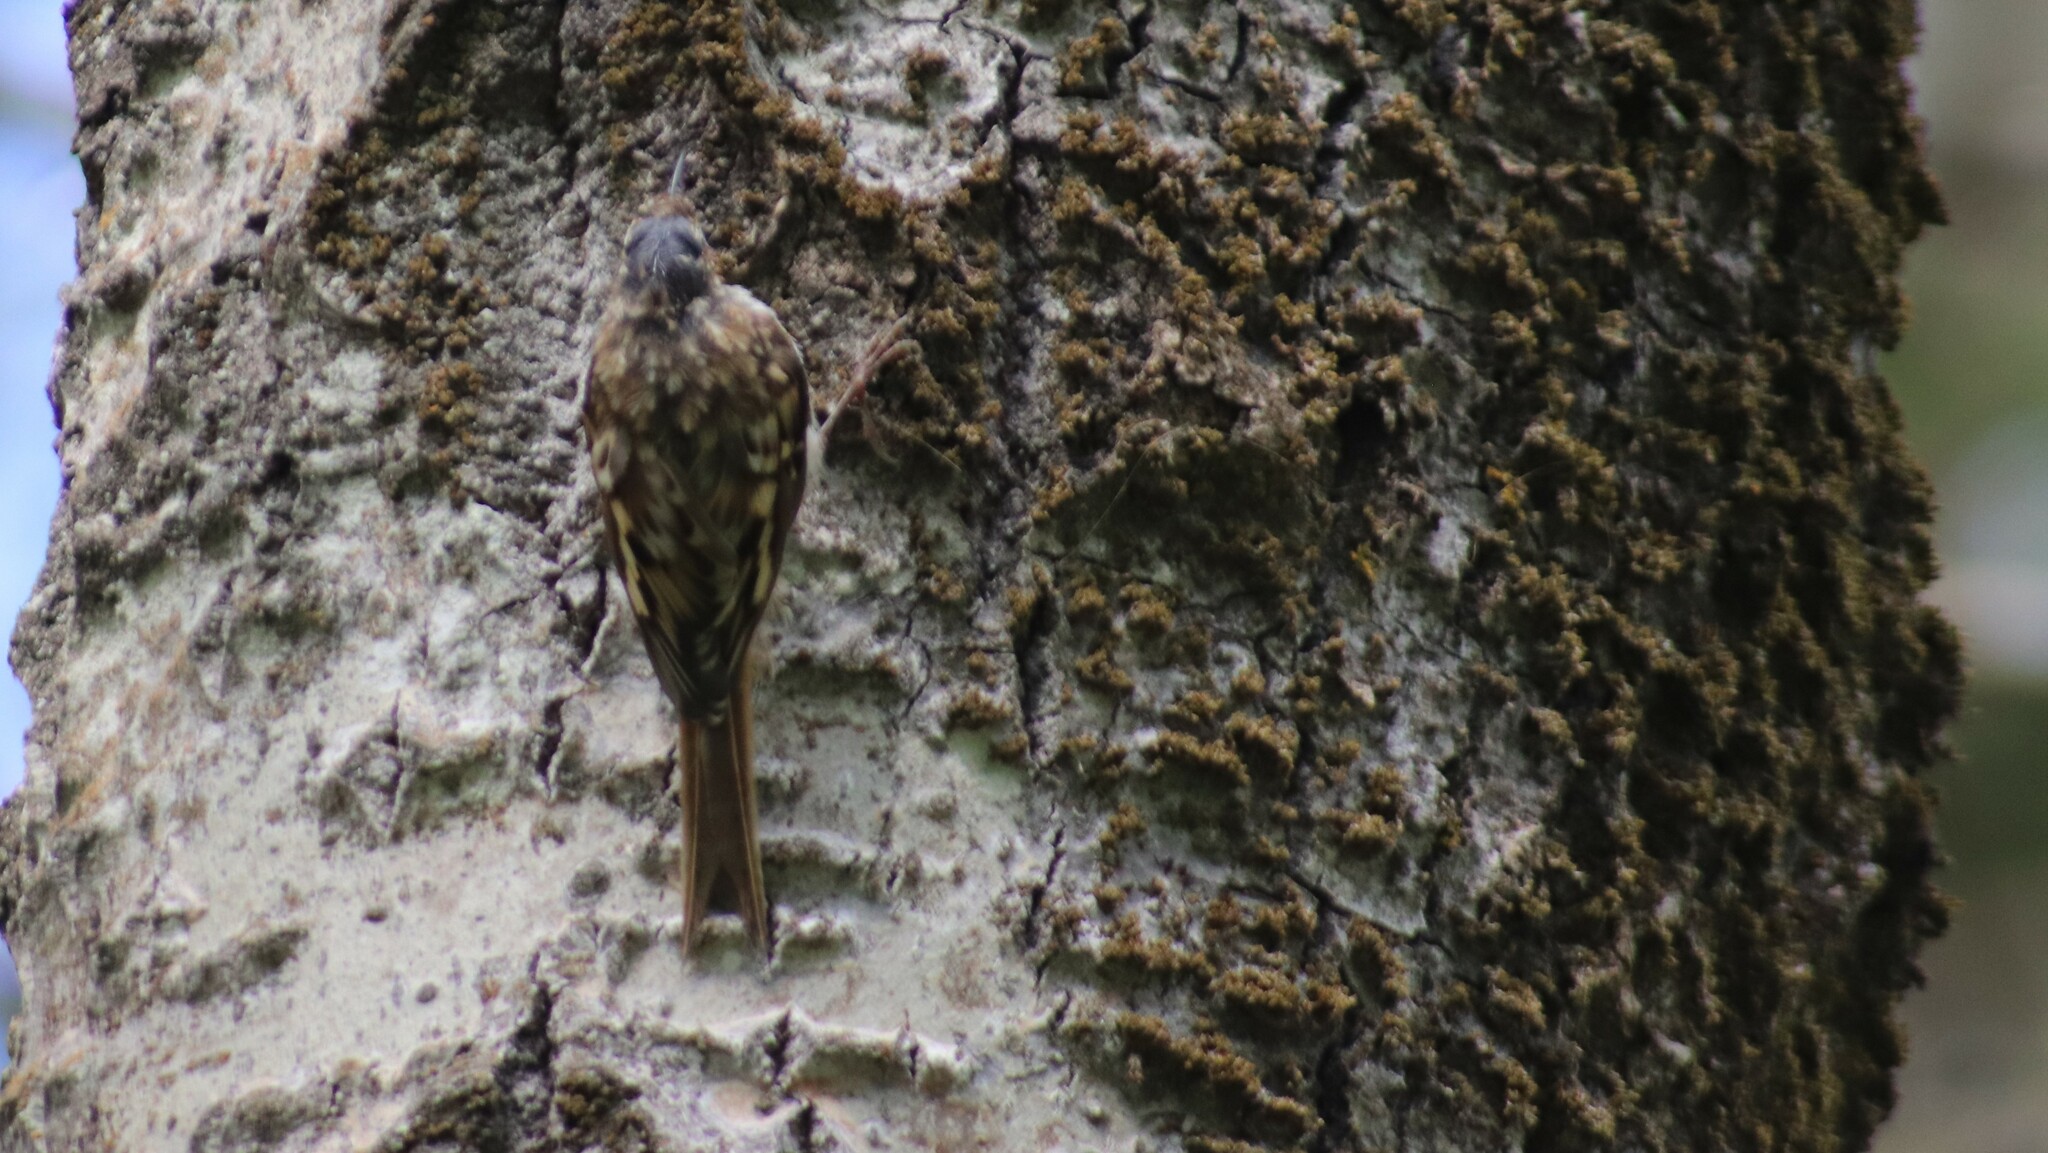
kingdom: Animalia
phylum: Chordata
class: Aves
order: Passeriformes
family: Certhiidae
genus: Certhia
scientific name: Certhia americana
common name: Brown creeper
